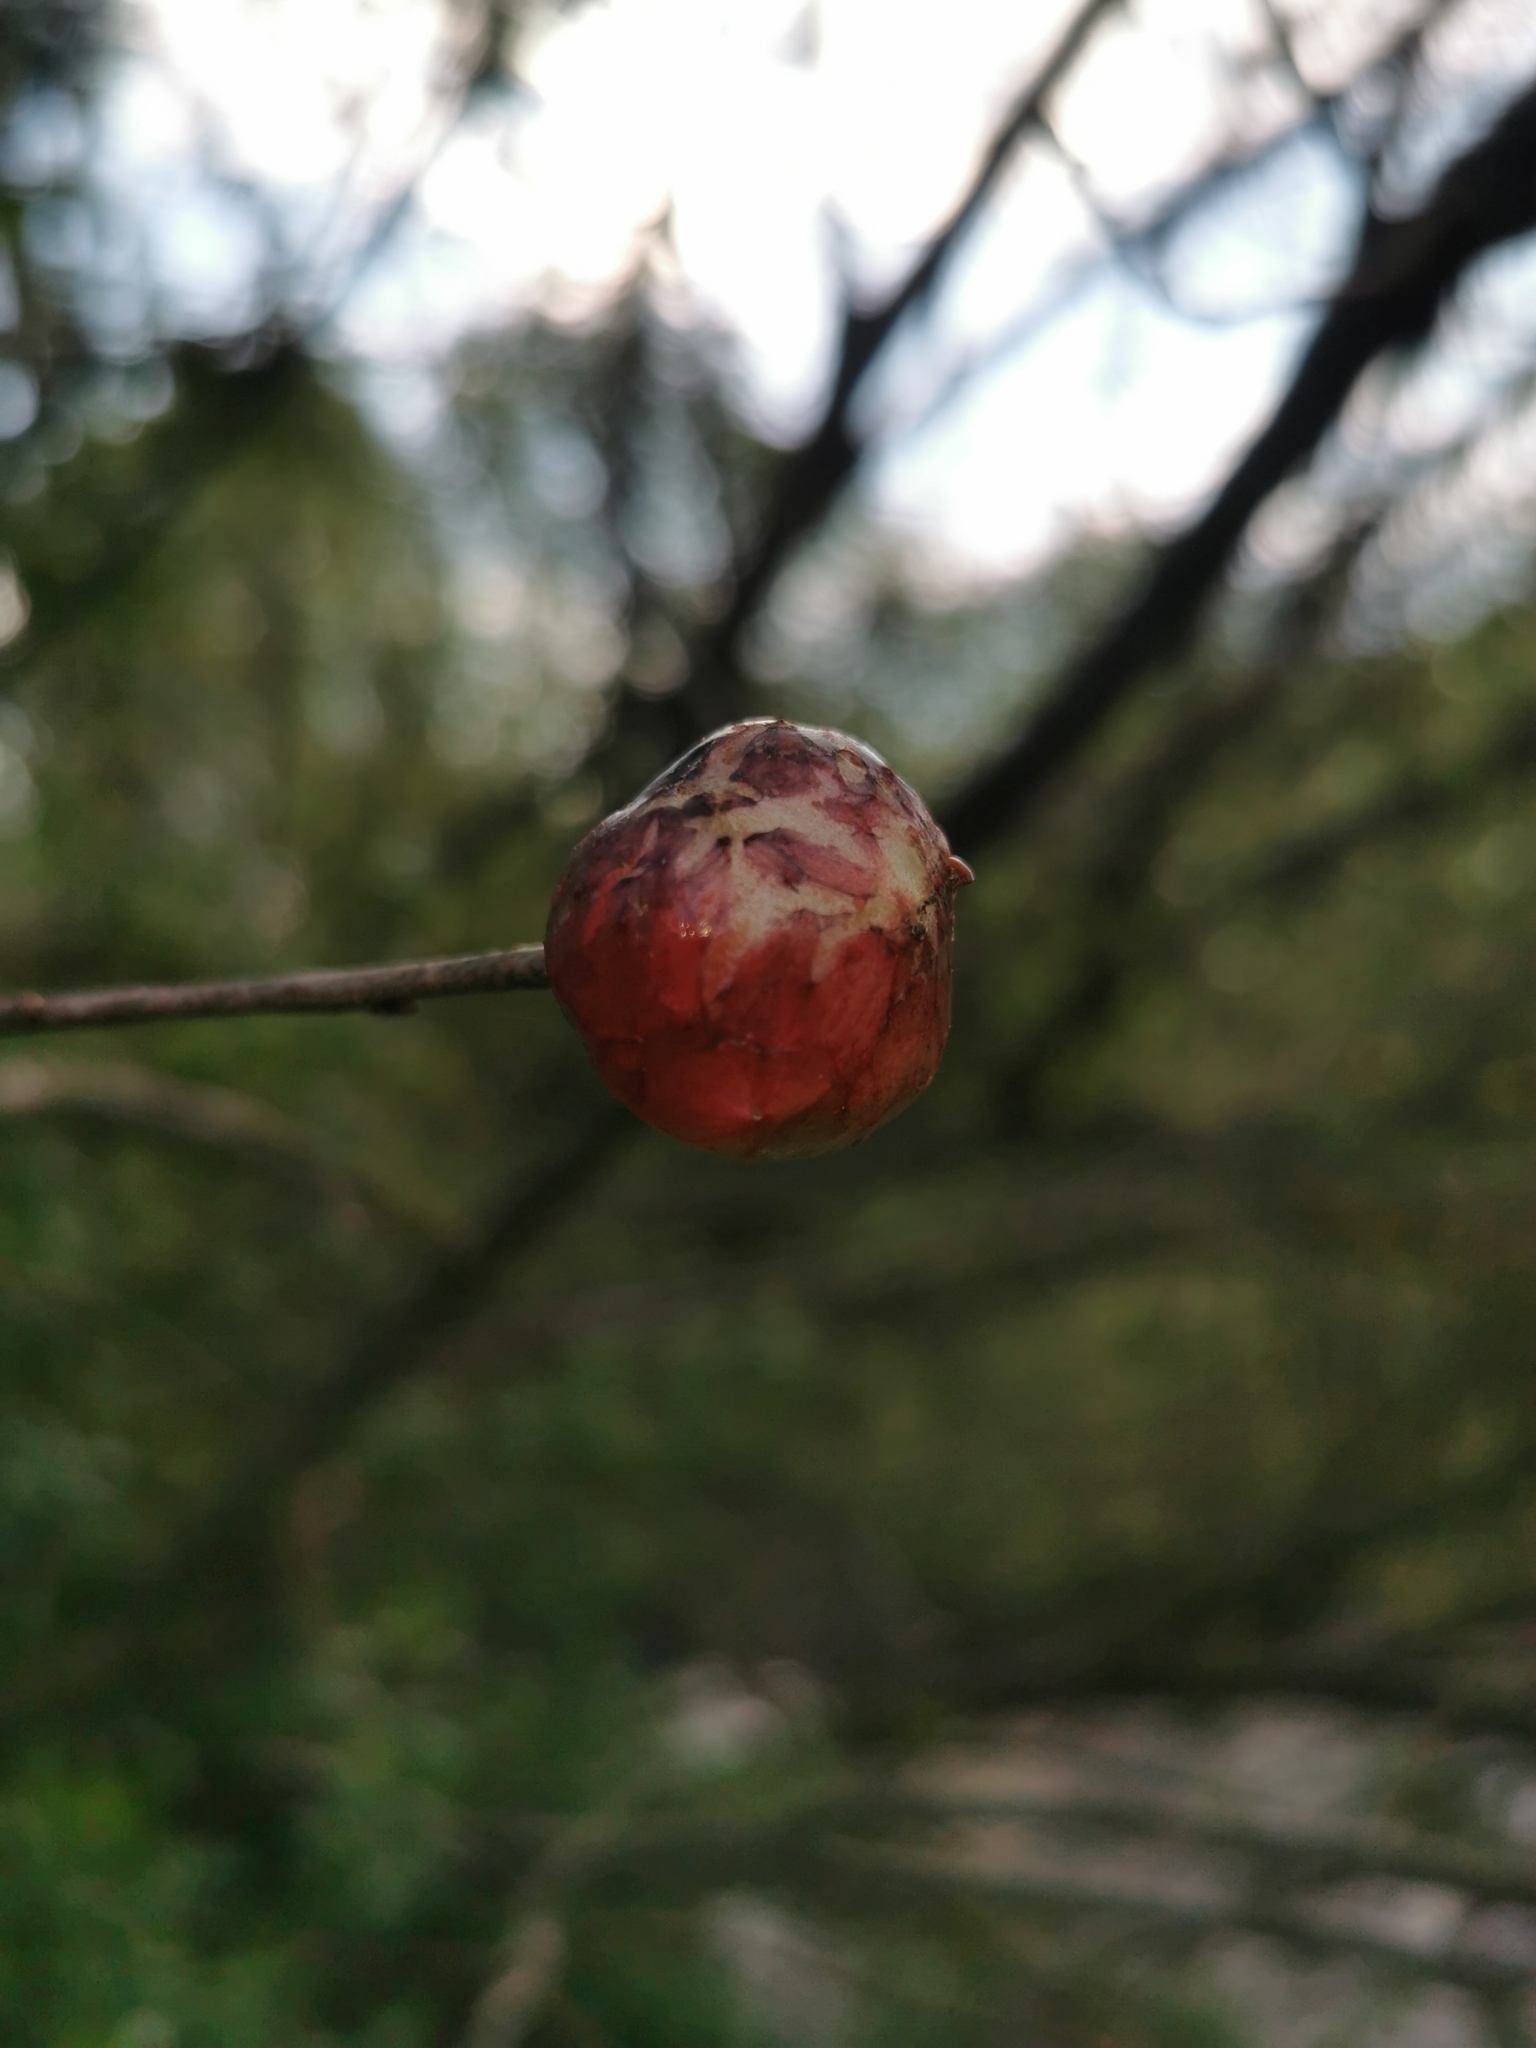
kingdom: Animalia
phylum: Arthropoda
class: Insecta
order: Hymenoptera
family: Cynipidae
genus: Biorhiza
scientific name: Biorhiza pallida
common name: Oak apple
